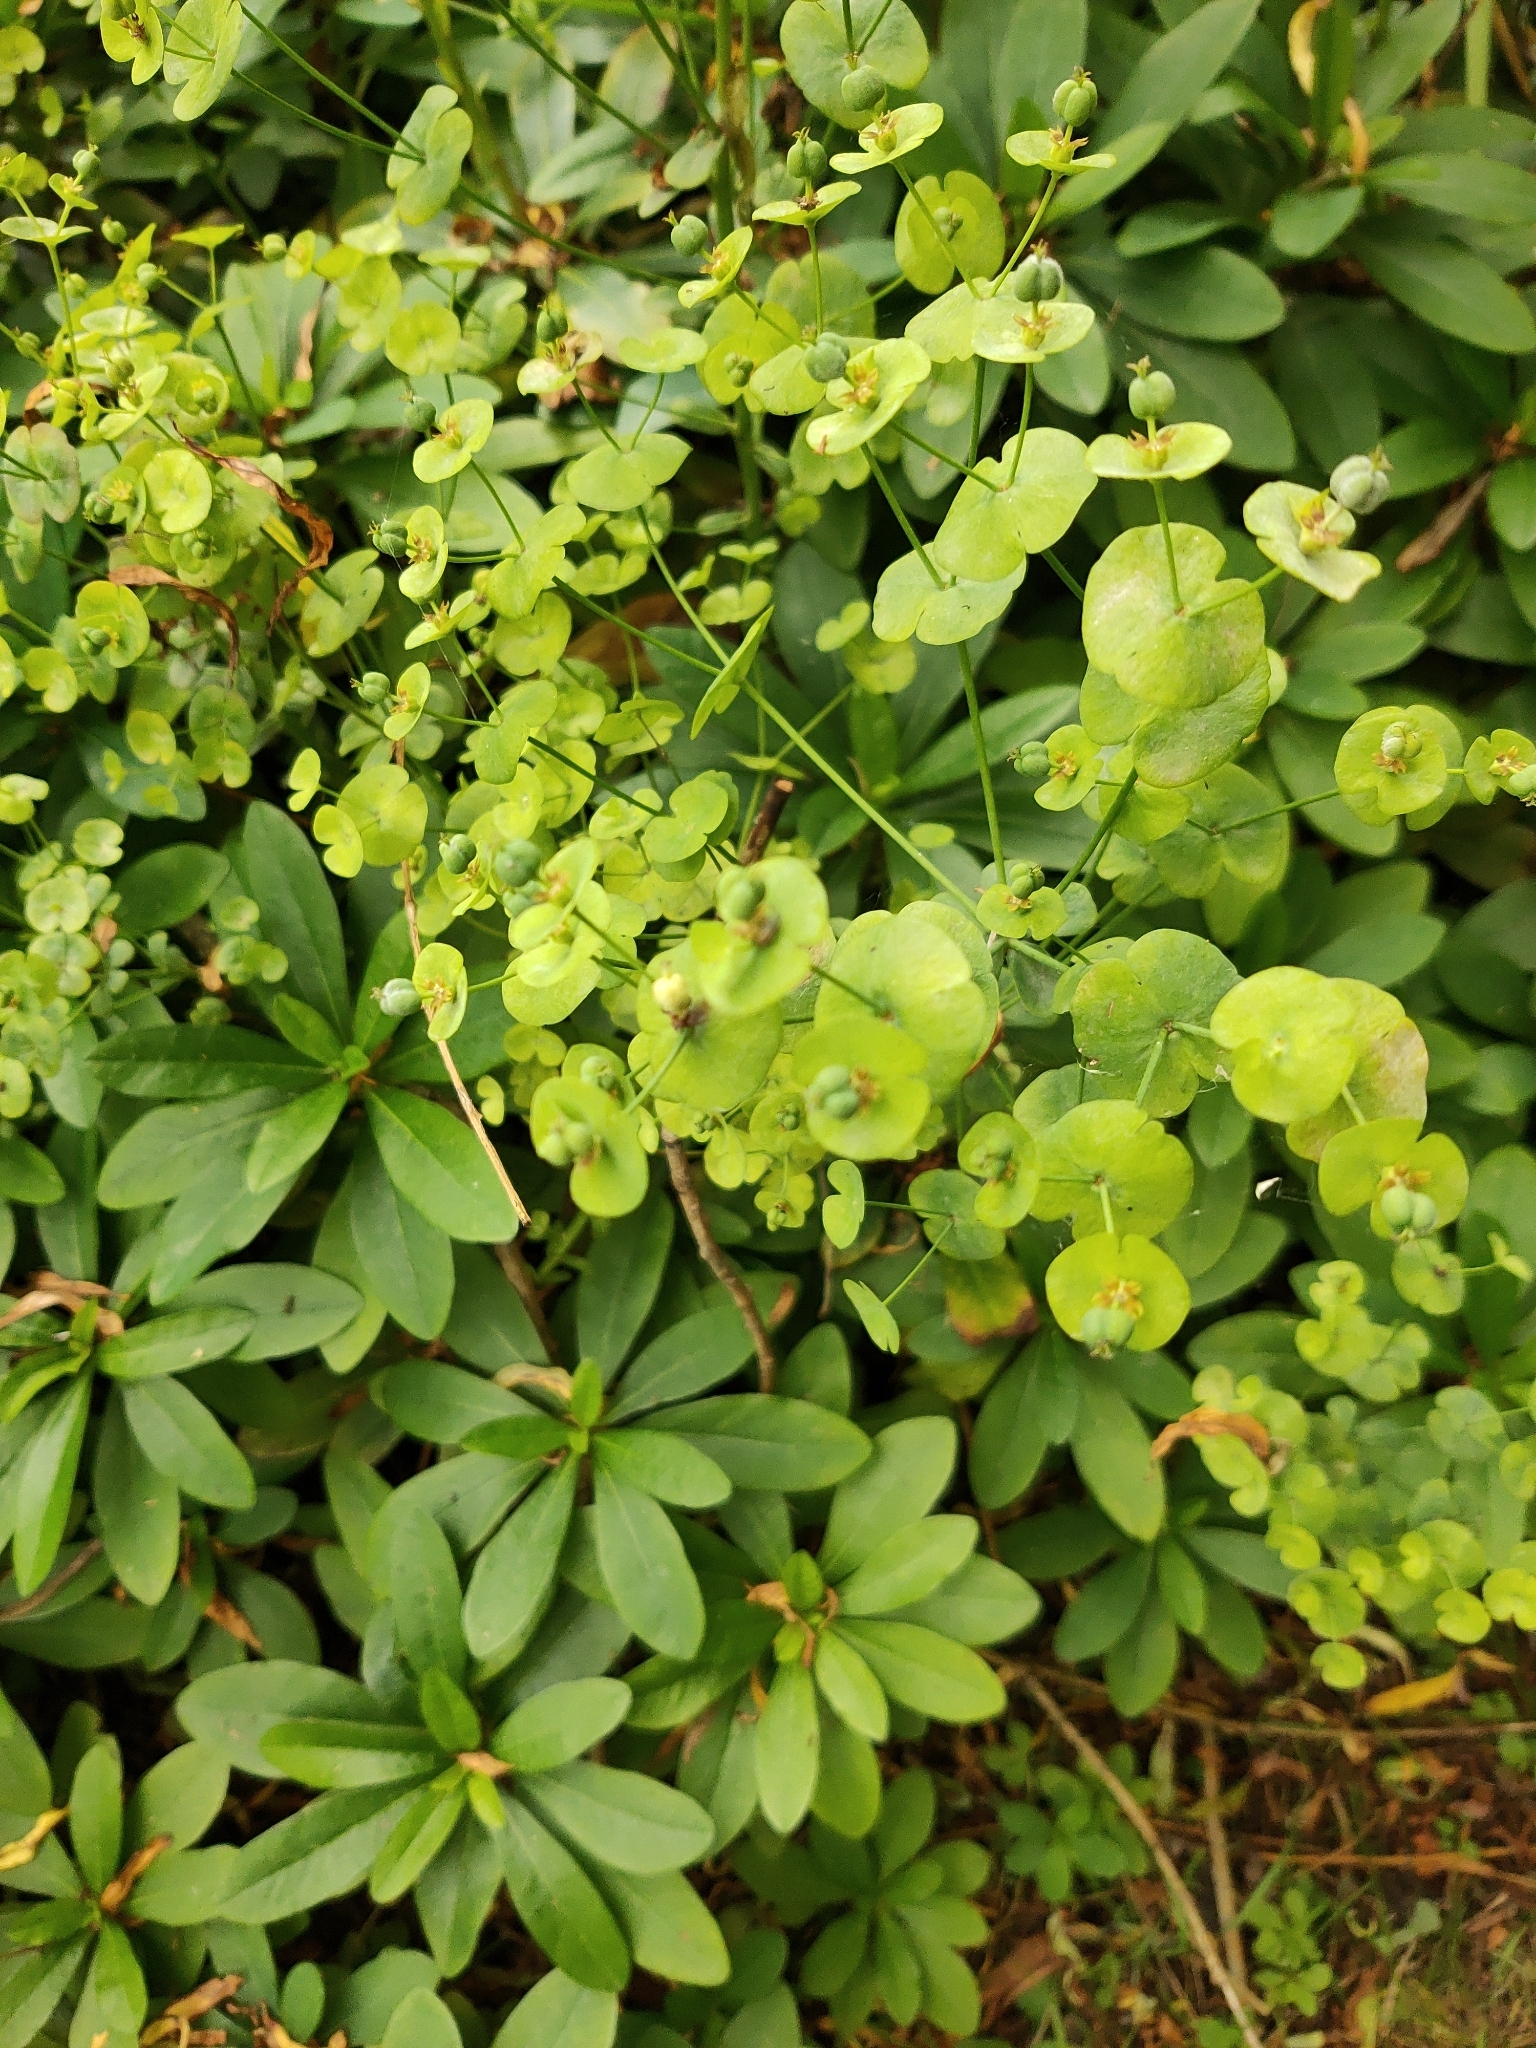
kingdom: Plantae
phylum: Tracheophyta
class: Magnoliopsida
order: Malpighiales
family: Euphorbiaceae
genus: Euphorbia
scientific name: Euphorbia amygdaloides
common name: Wood spurge
